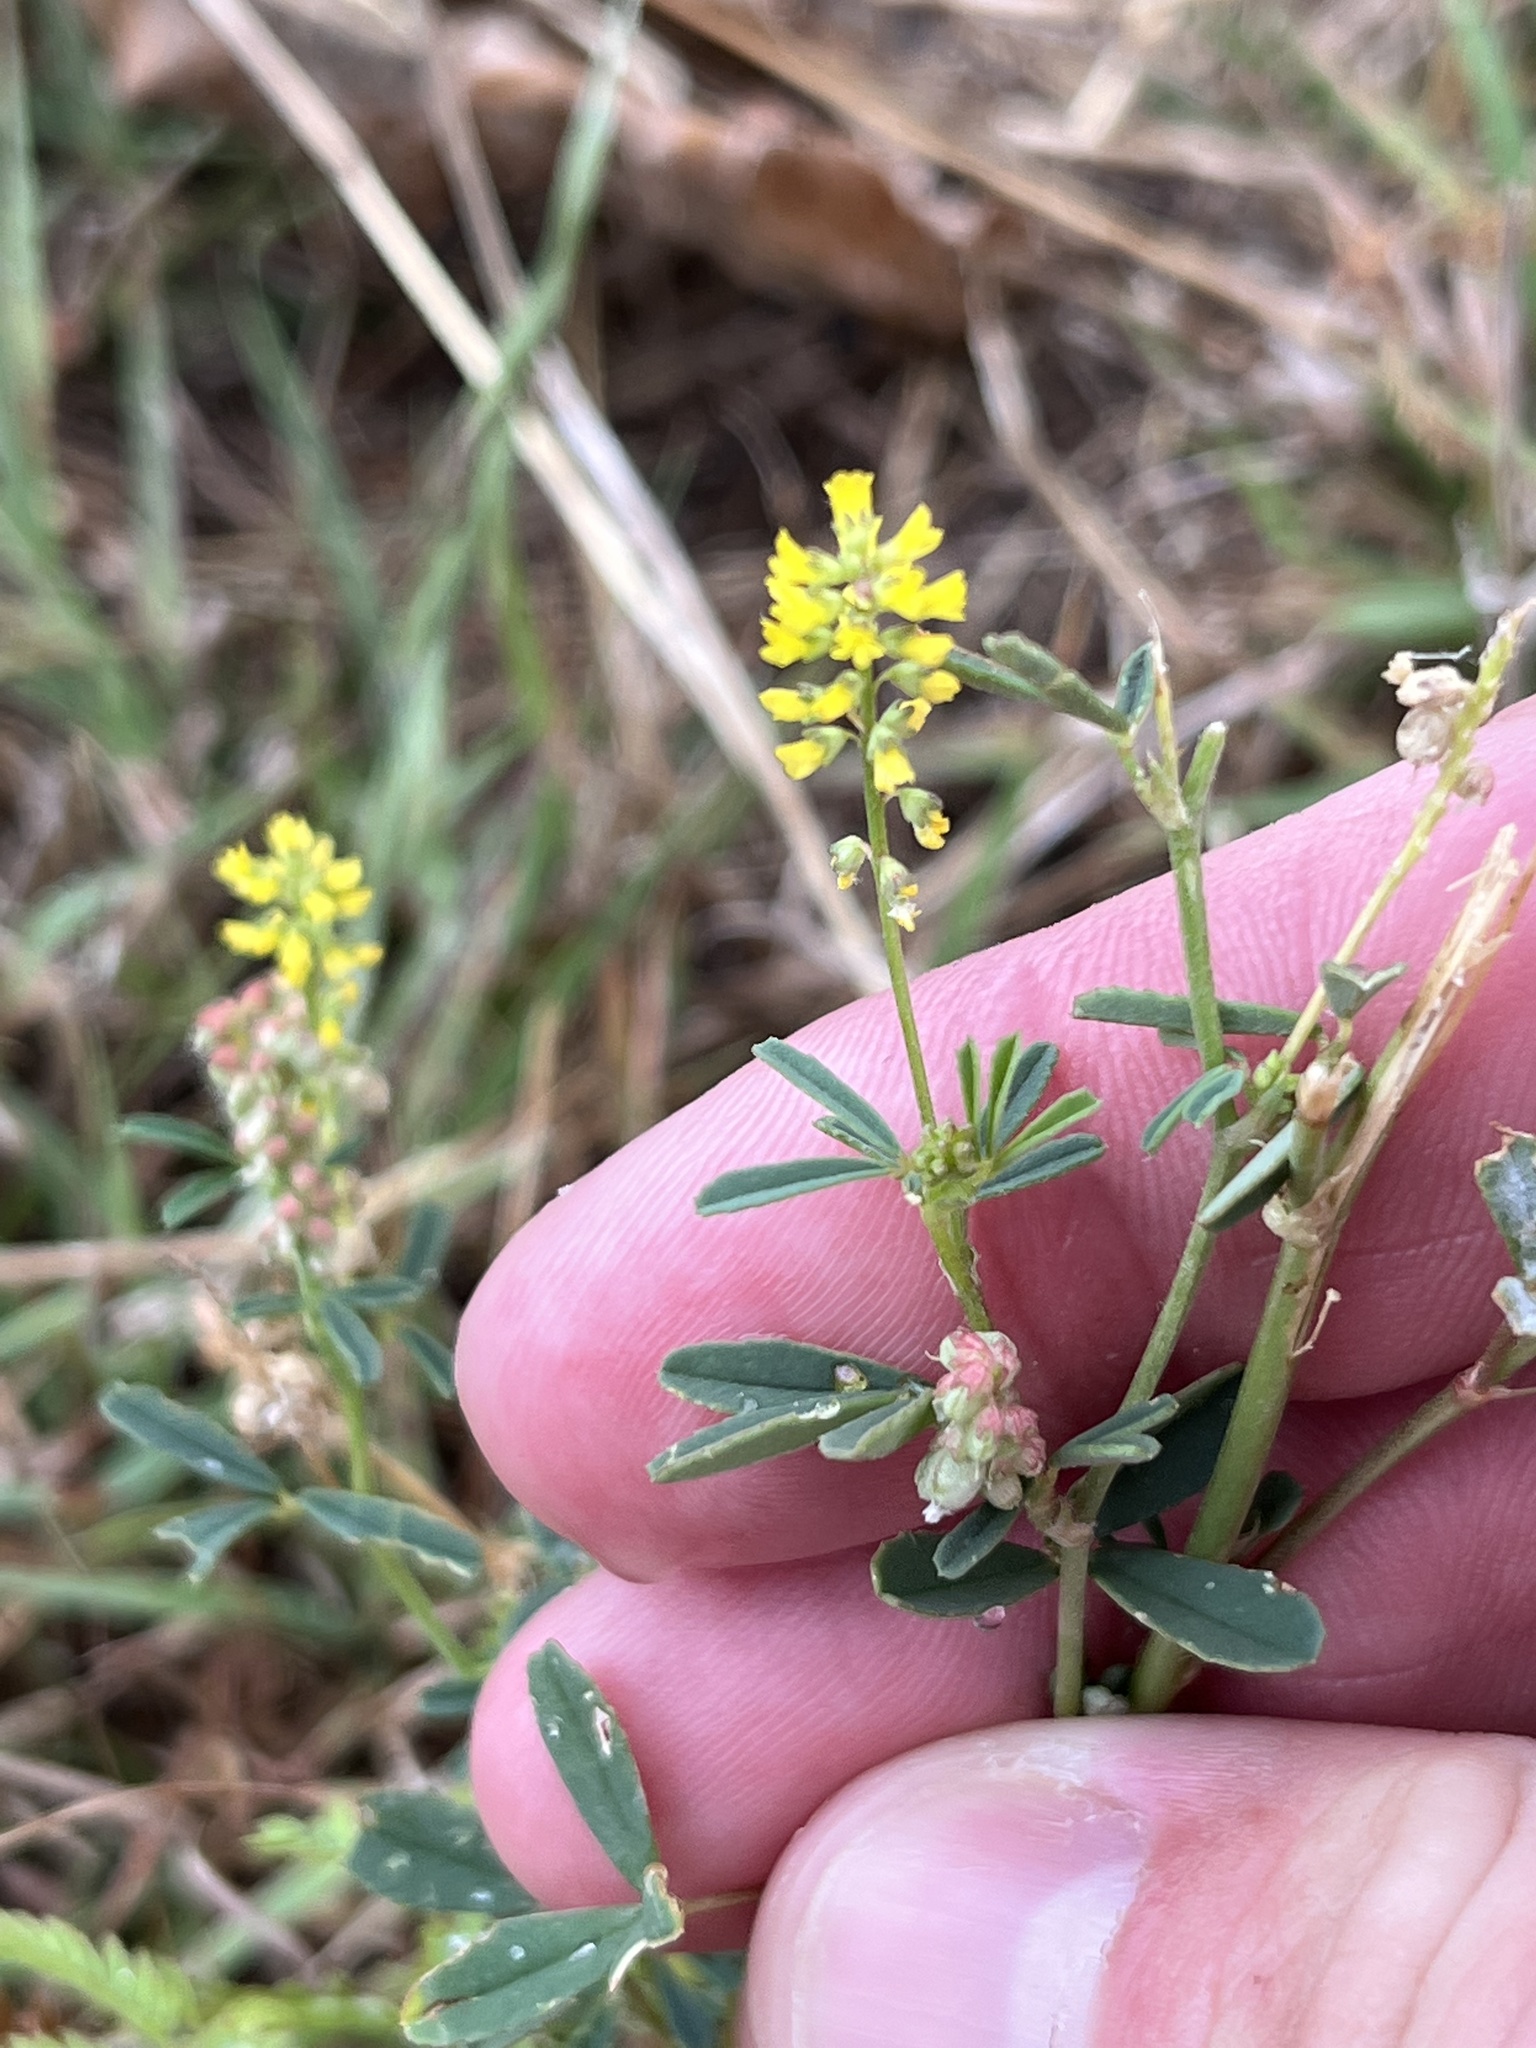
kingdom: Plantae
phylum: Tracheophyta
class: Magnoliopsida
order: Fabales
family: Fabaceae
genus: Melilotus
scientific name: Melilotus indicus
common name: Small melilot
